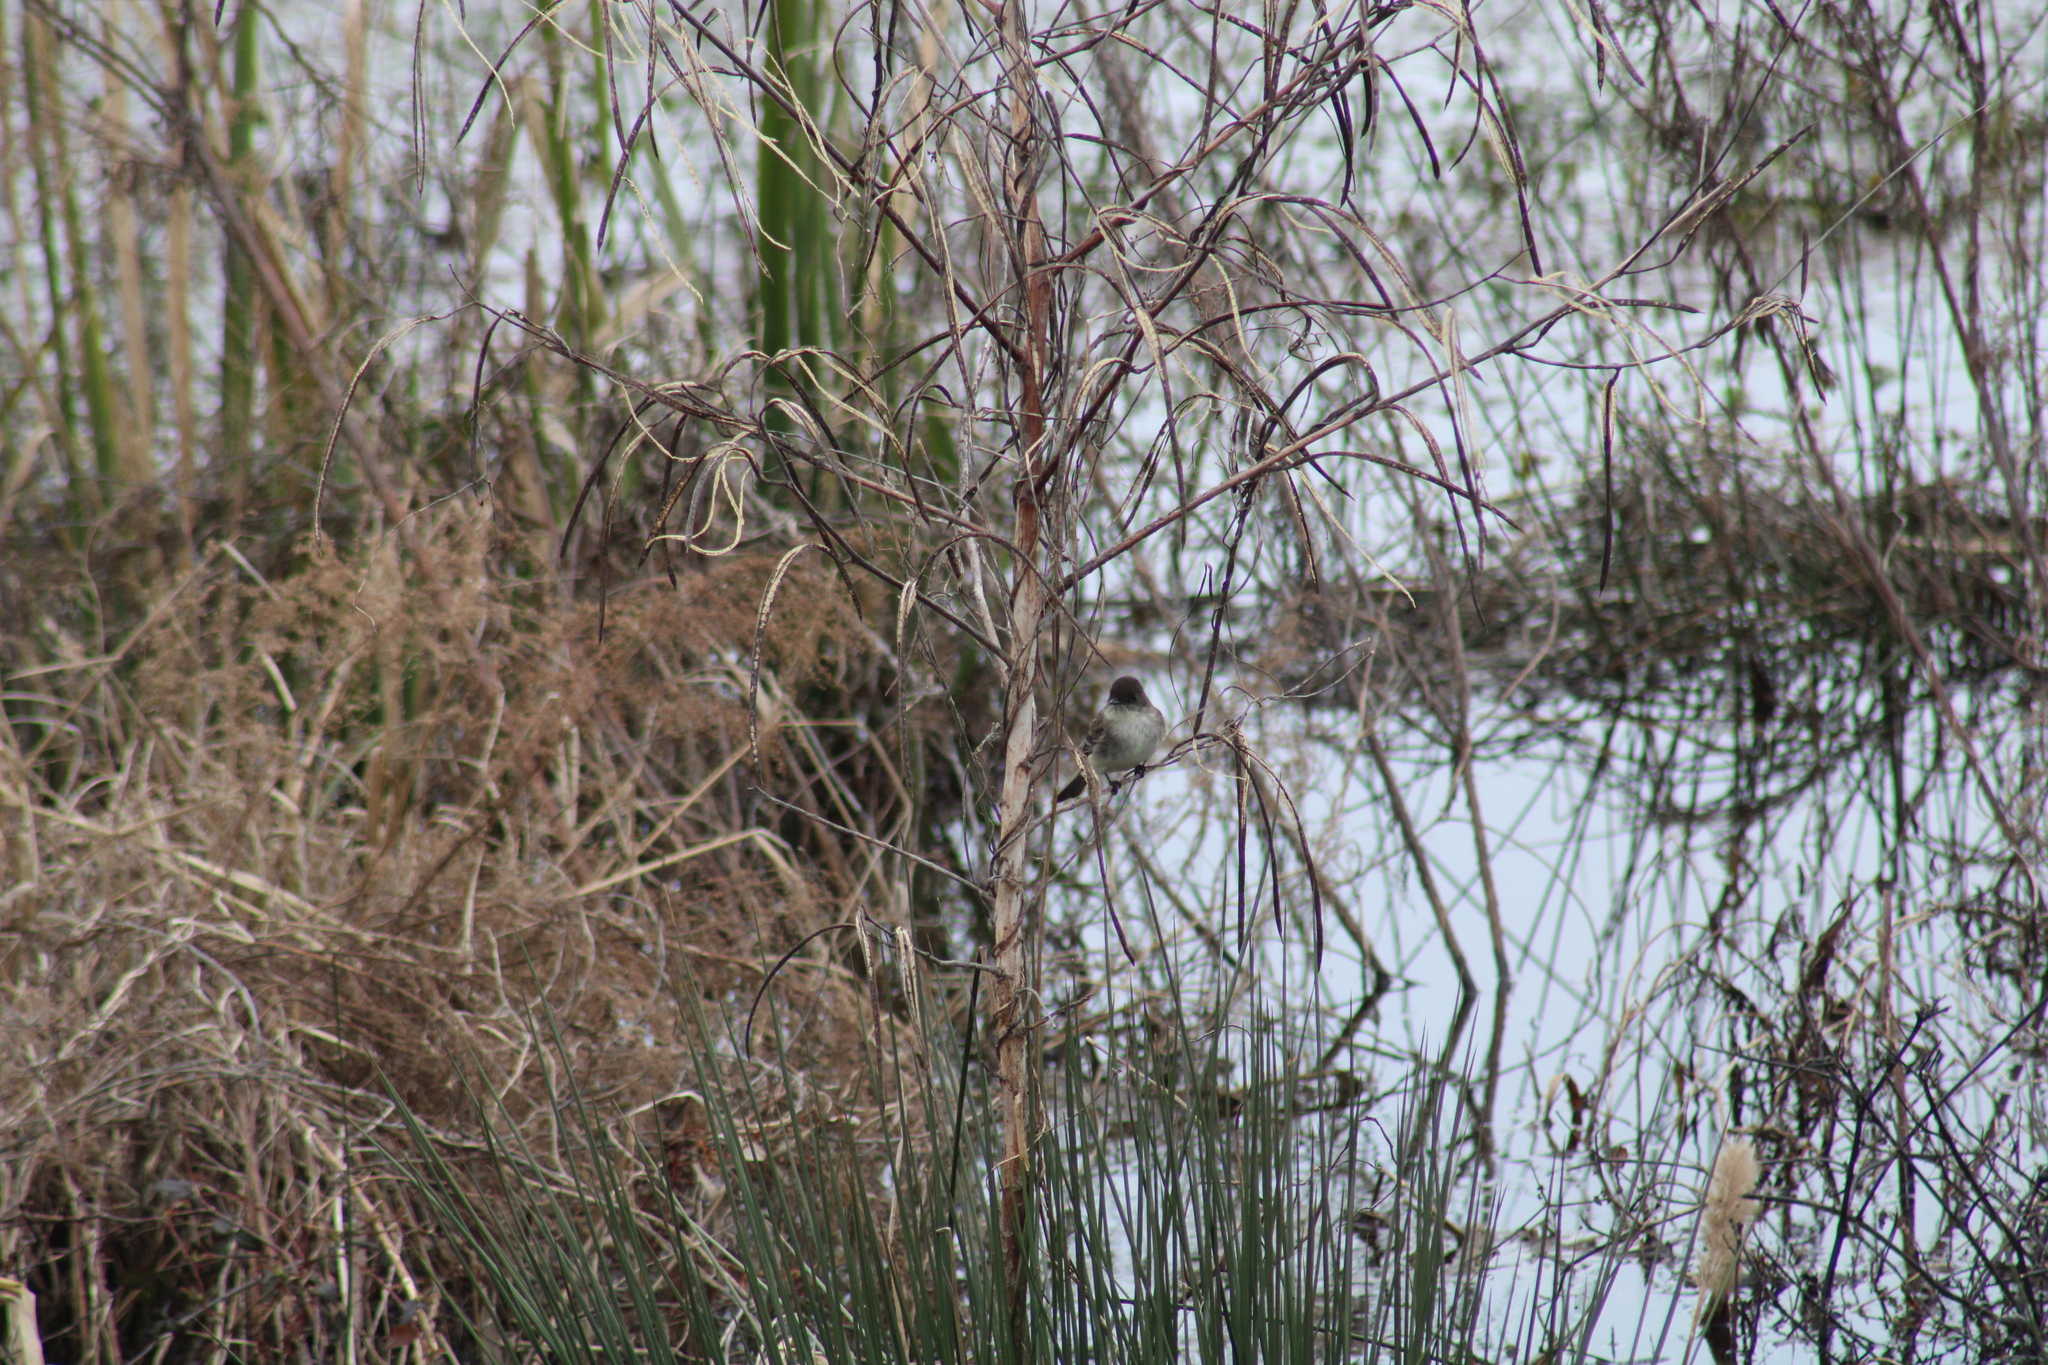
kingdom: Animalia
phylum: Chordata
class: Aves
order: Passeriformes
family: Tyrannidae
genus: Sayornis
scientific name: Sayornis phoebe
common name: Eastern phoebe
